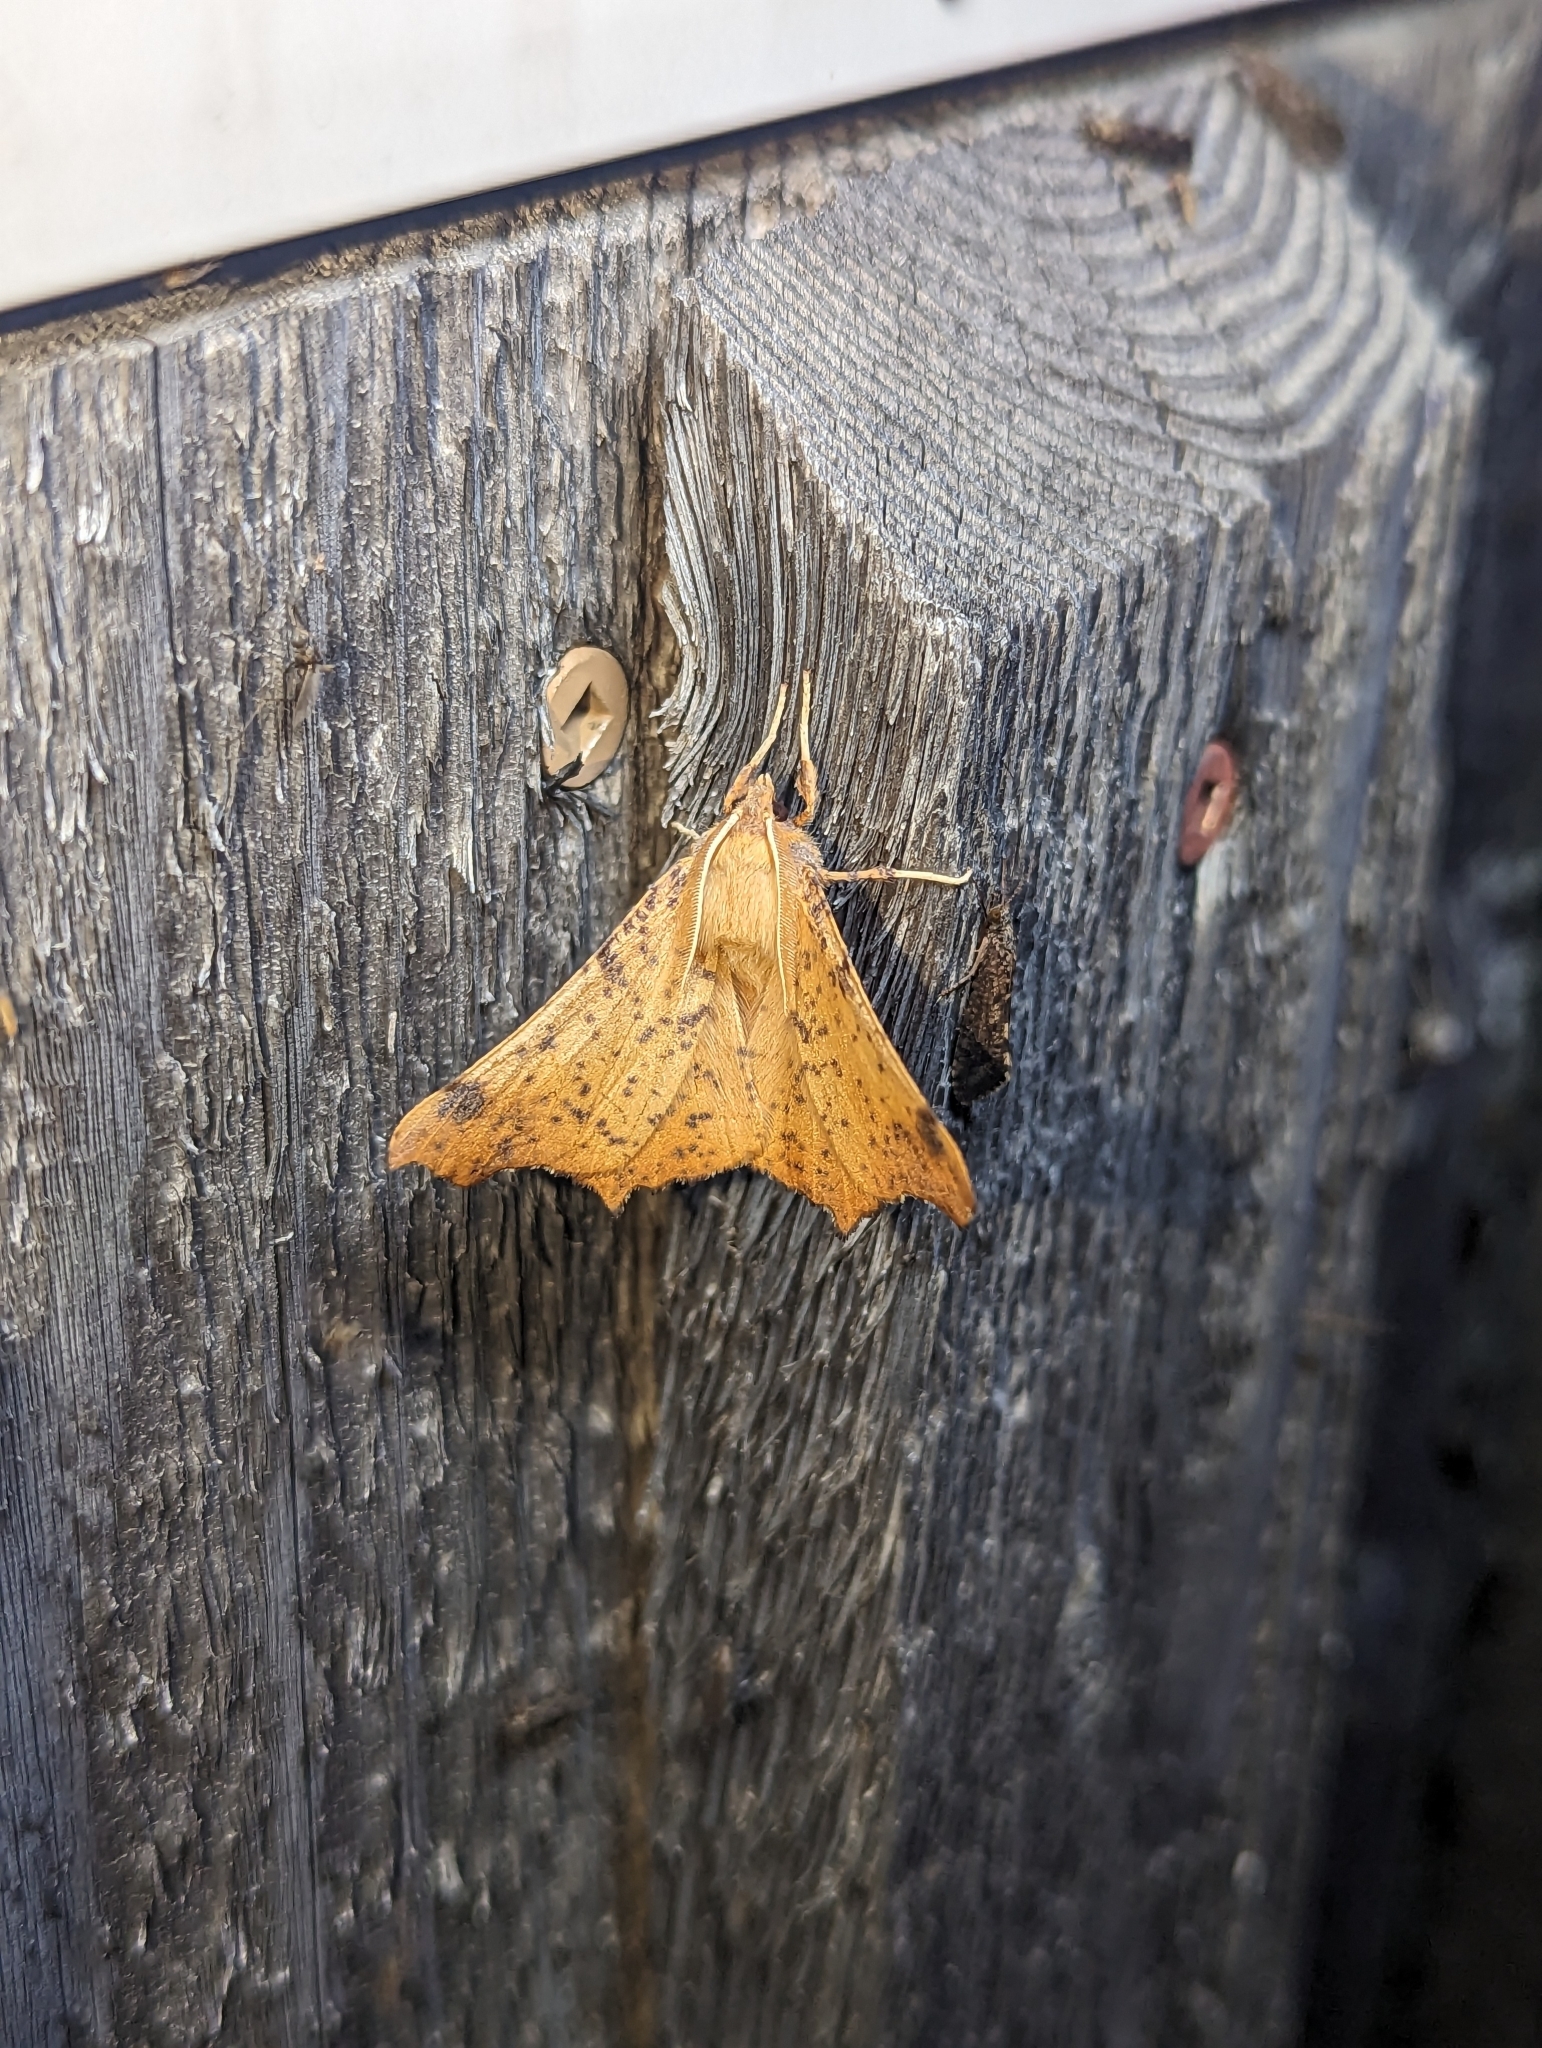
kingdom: Animalia
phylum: Arthropoda
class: Insecta
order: Lepidoptera
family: Geometridae
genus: Ennomos
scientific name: Ennomos magnaria
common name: Maple spanworm
